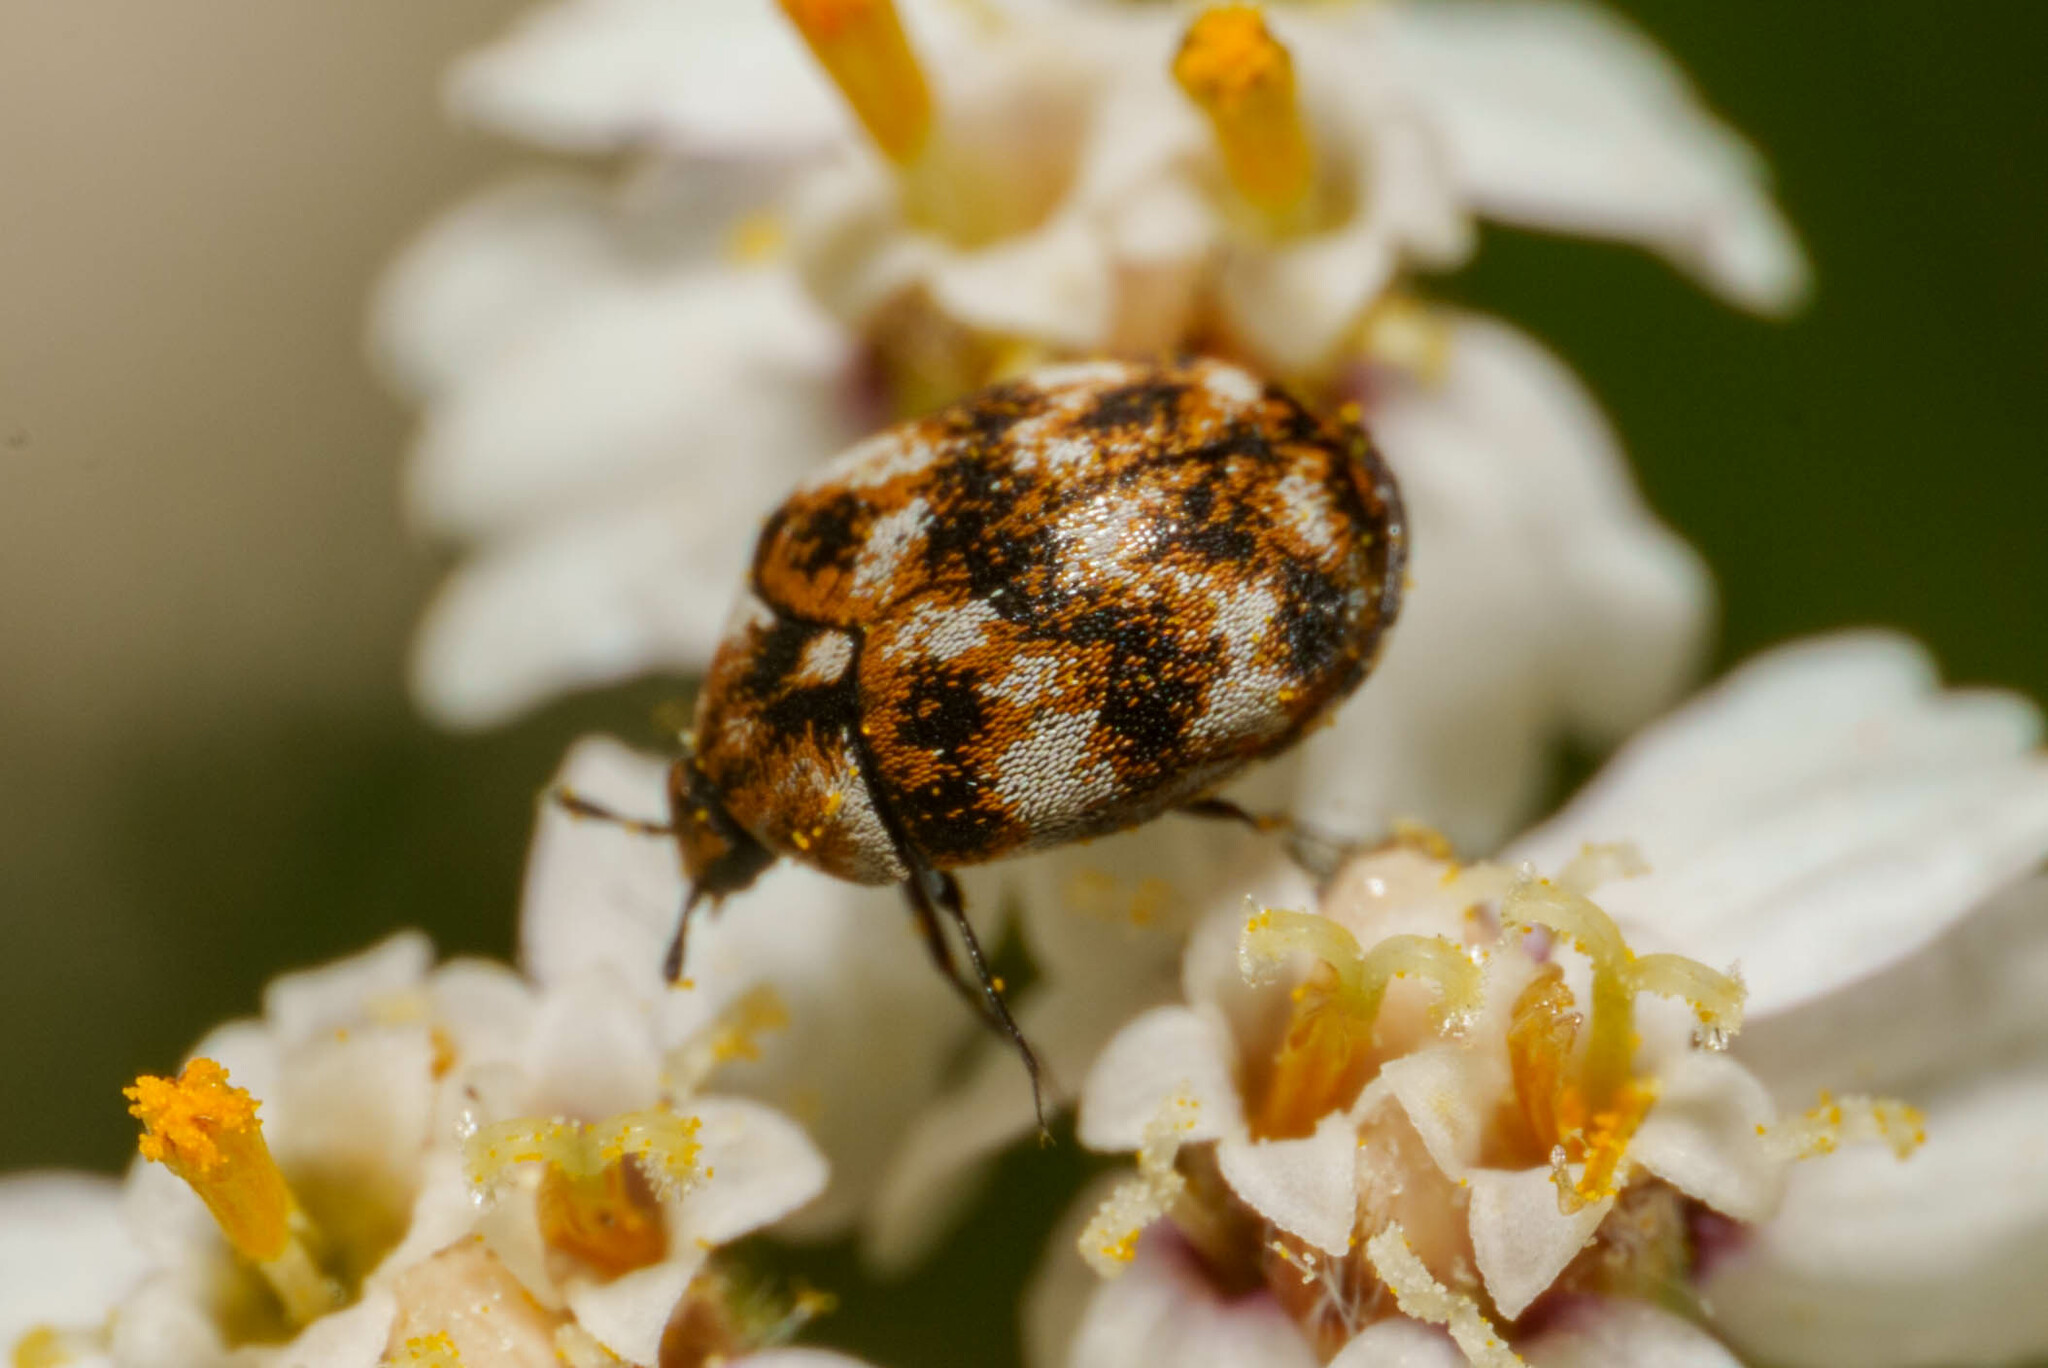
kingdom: Animalia
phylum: Arthropoda
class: Insecta
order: Coleoptera
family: Dermestidae
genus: Anthrenus
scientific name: Anthrenus verbasci
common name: Varied carpet beetle
